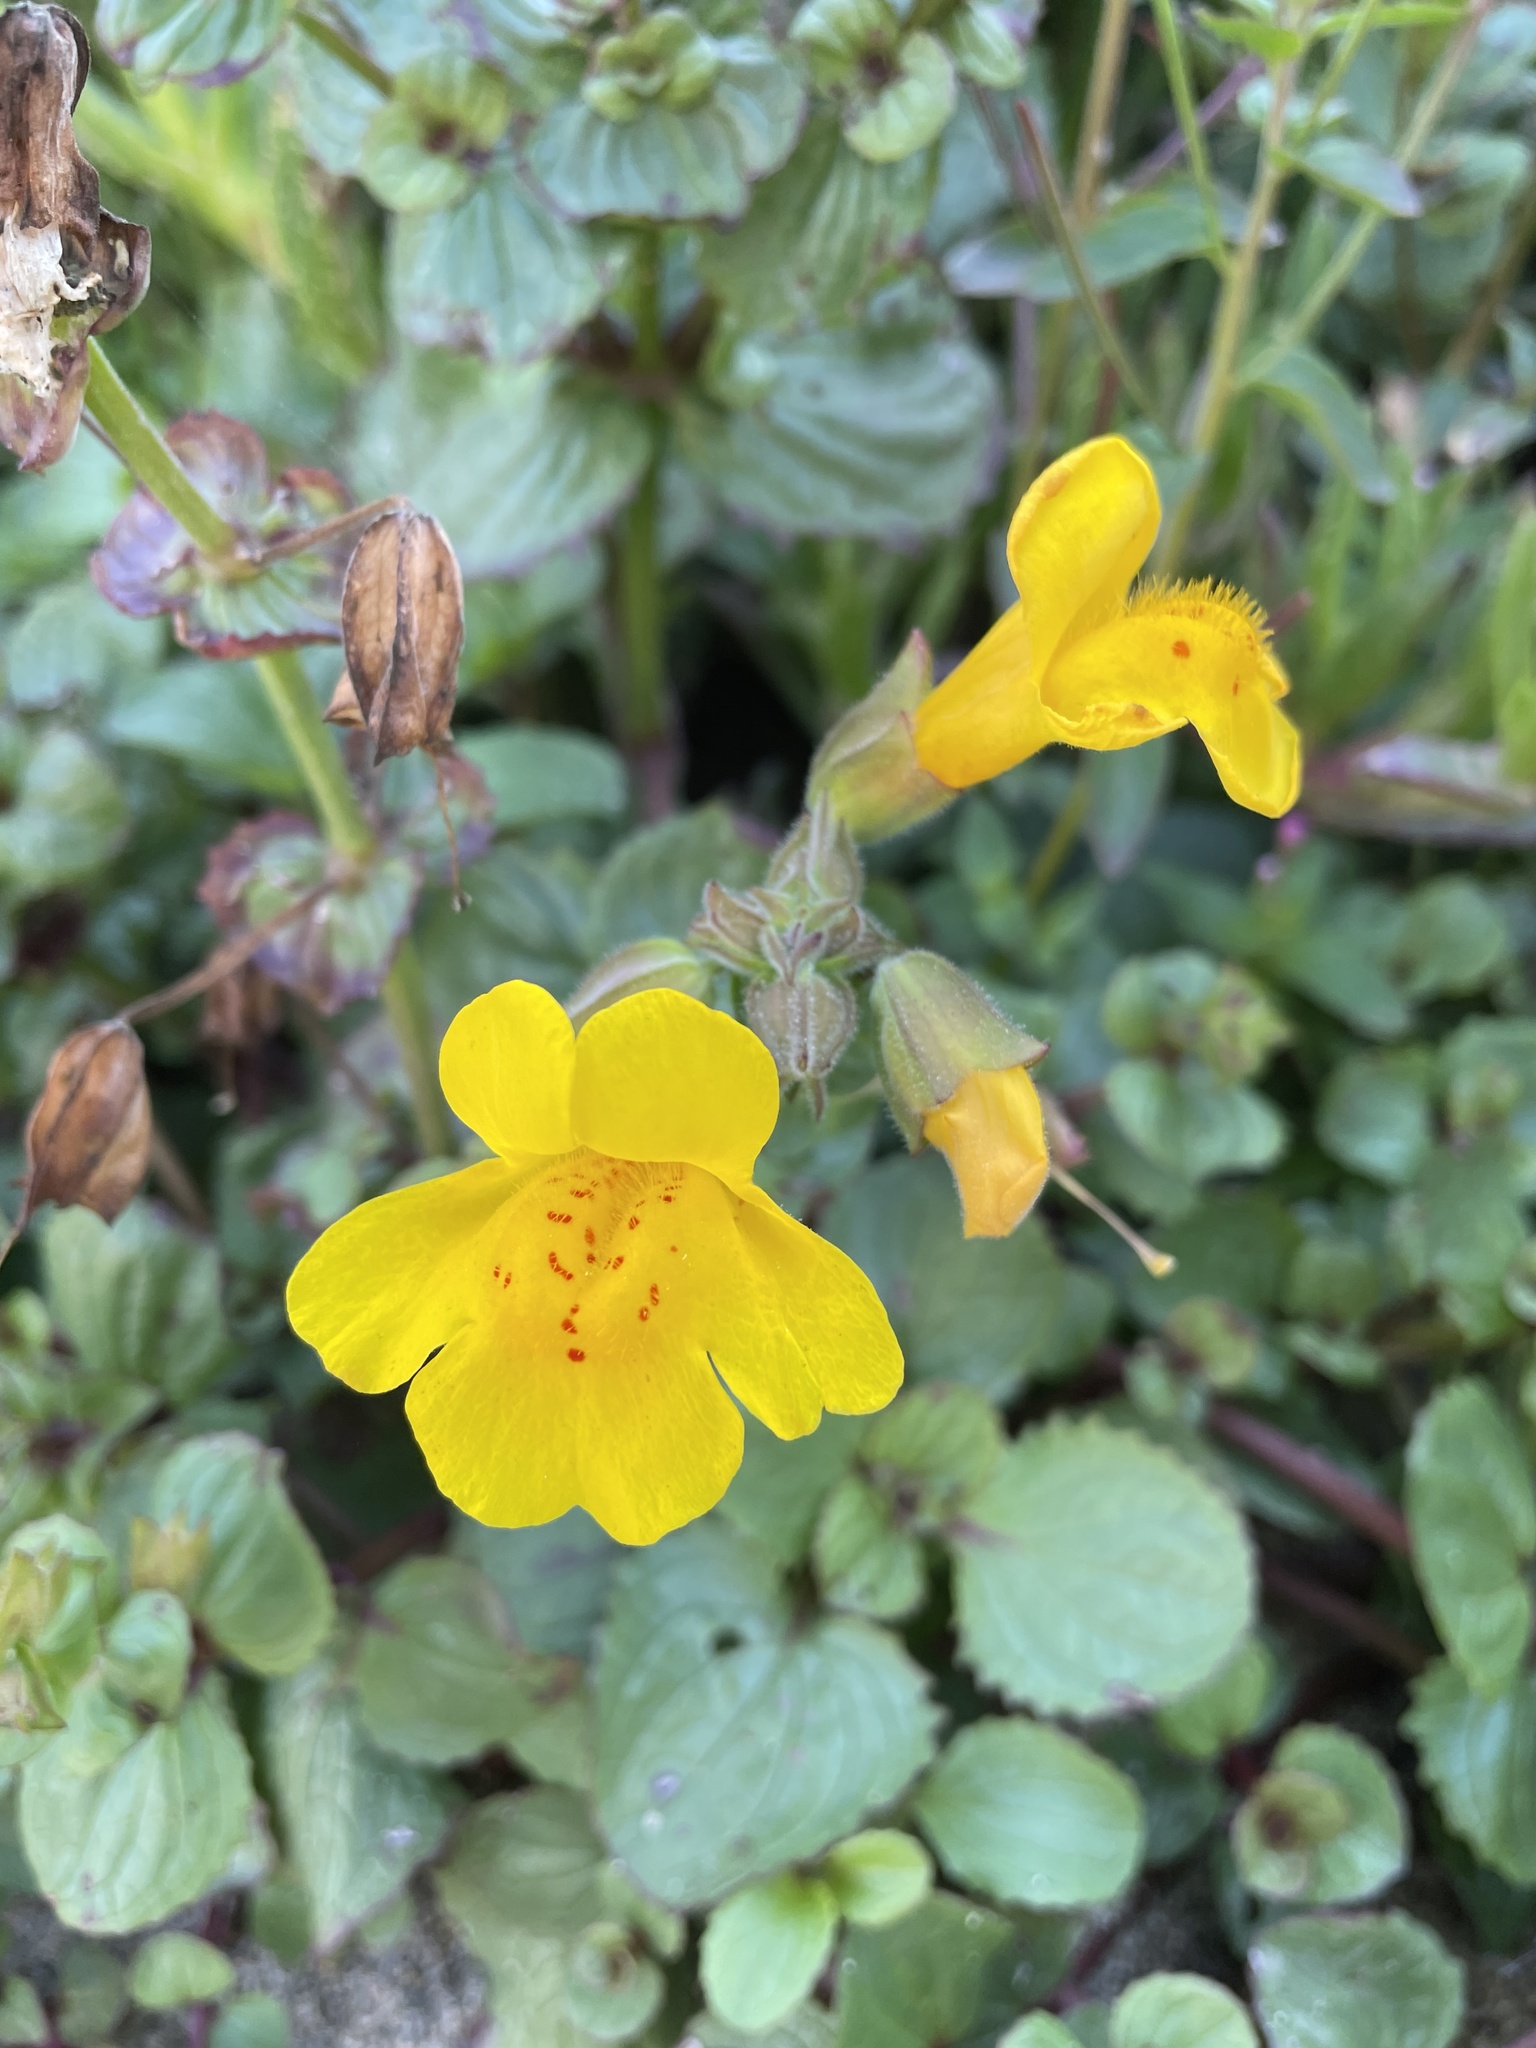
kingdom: Plantae
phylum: Tracheophyta
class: Magnoliopsida
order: Lamiales
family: Phrymaceae
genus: Erythranthe
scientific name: Erythranthe grandis
